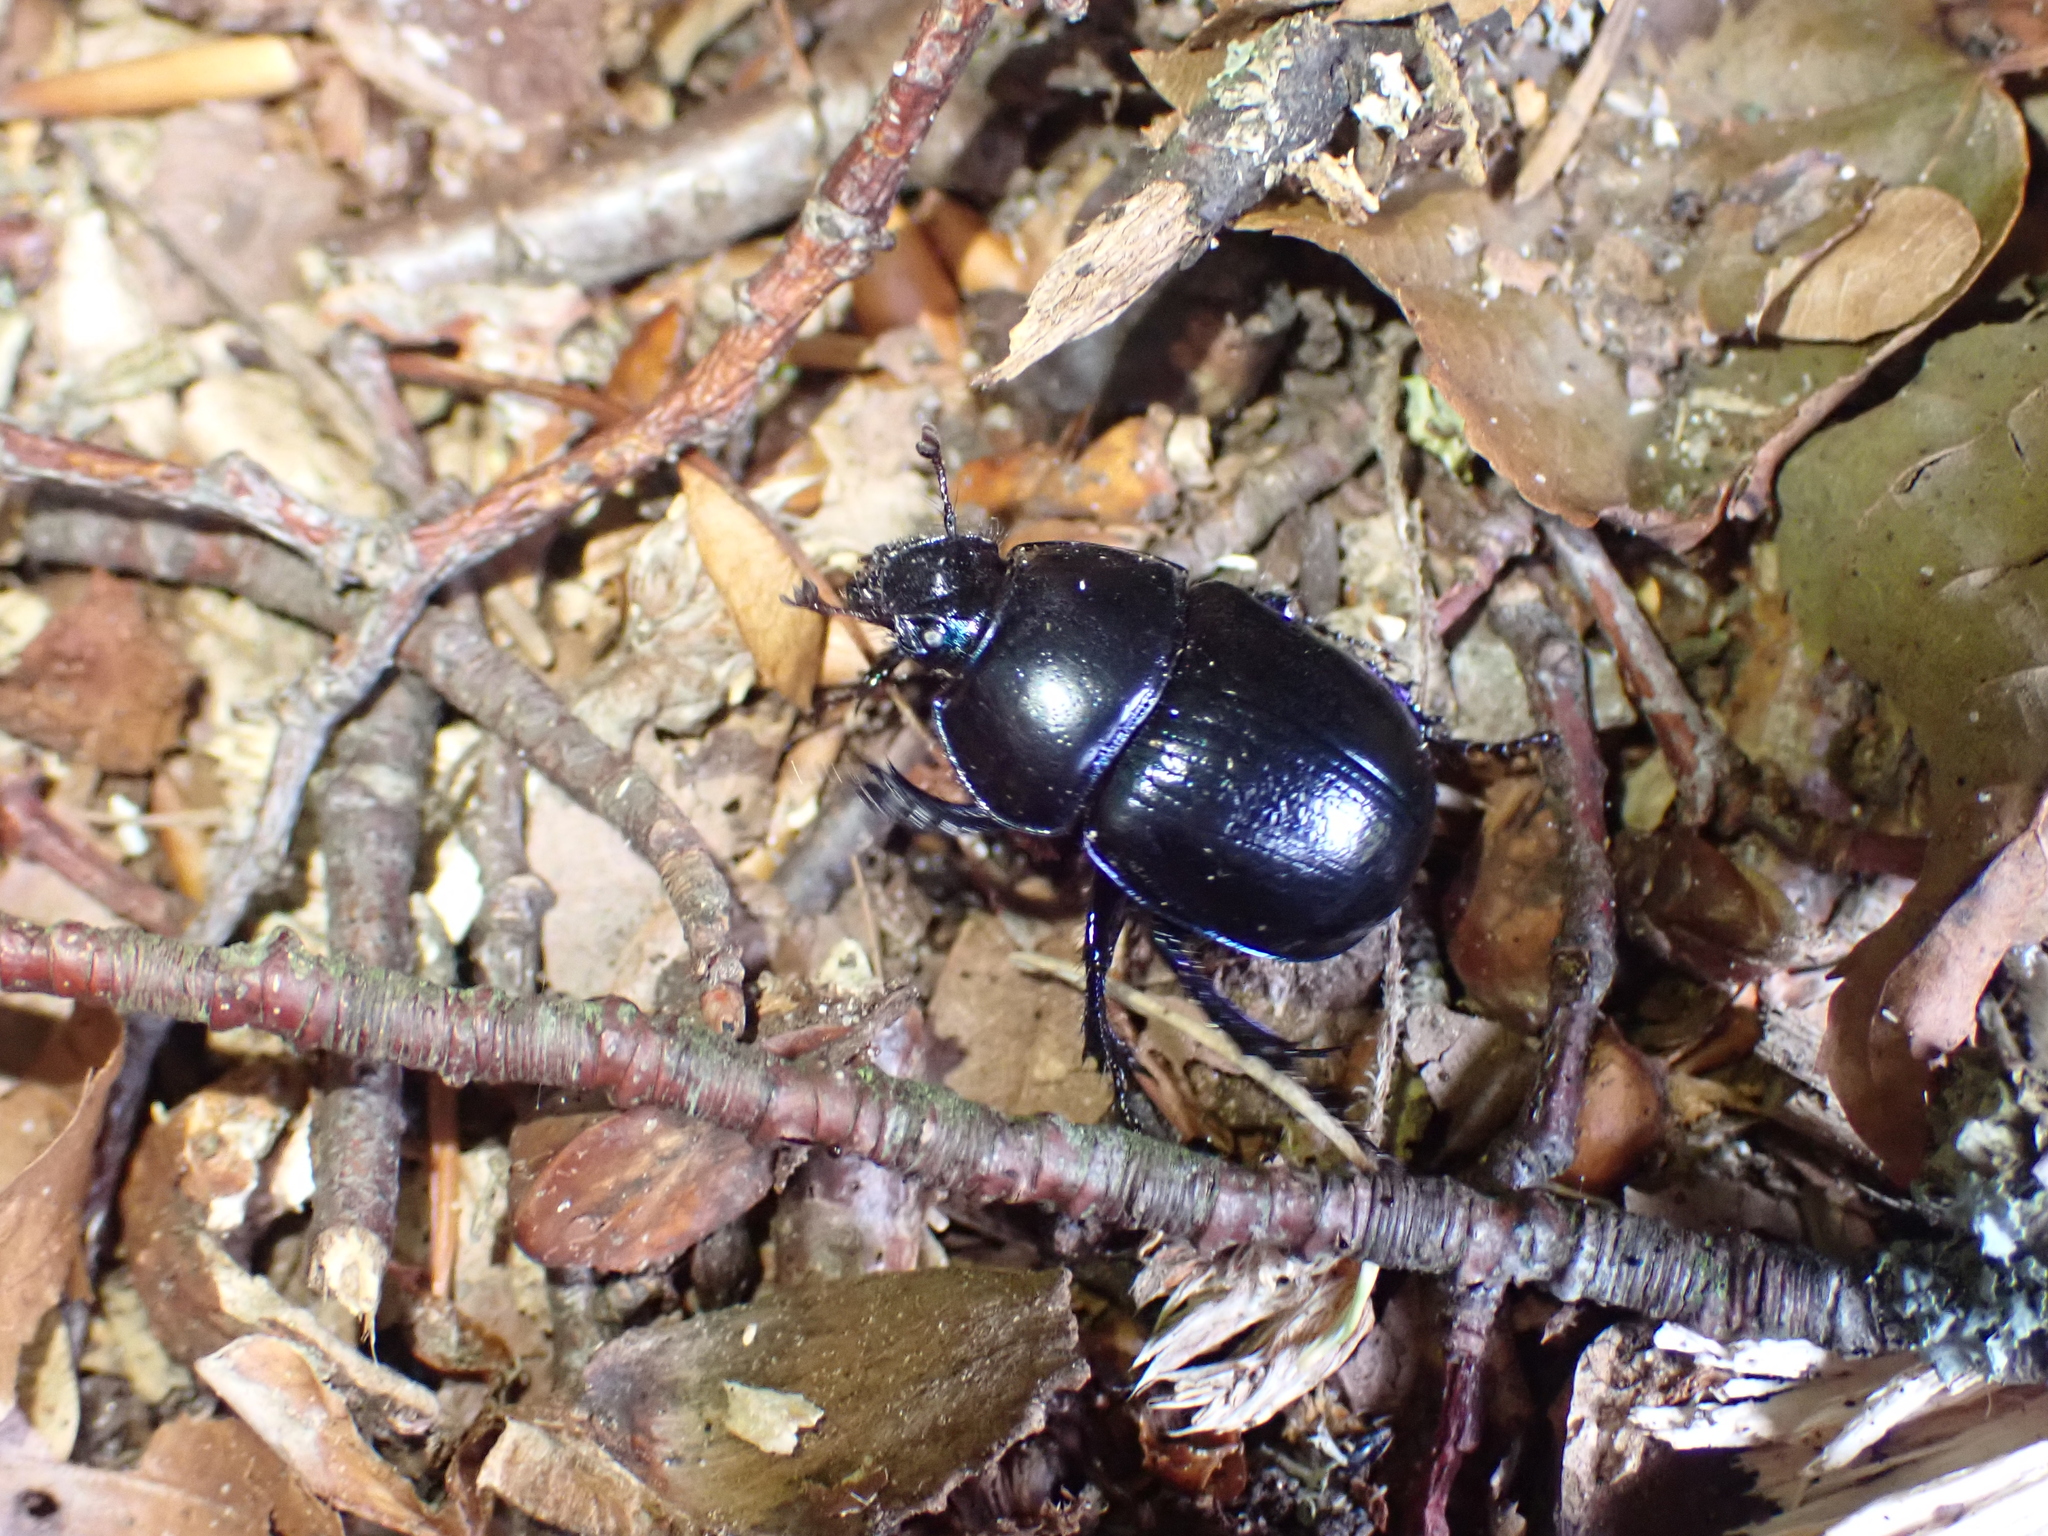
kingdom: Animalia
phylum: Arthropoda
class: Insecta
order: Coleoptera
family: Geotrupidae
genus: Anoplotrupes
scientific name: Anoplotrupes stercorosus
